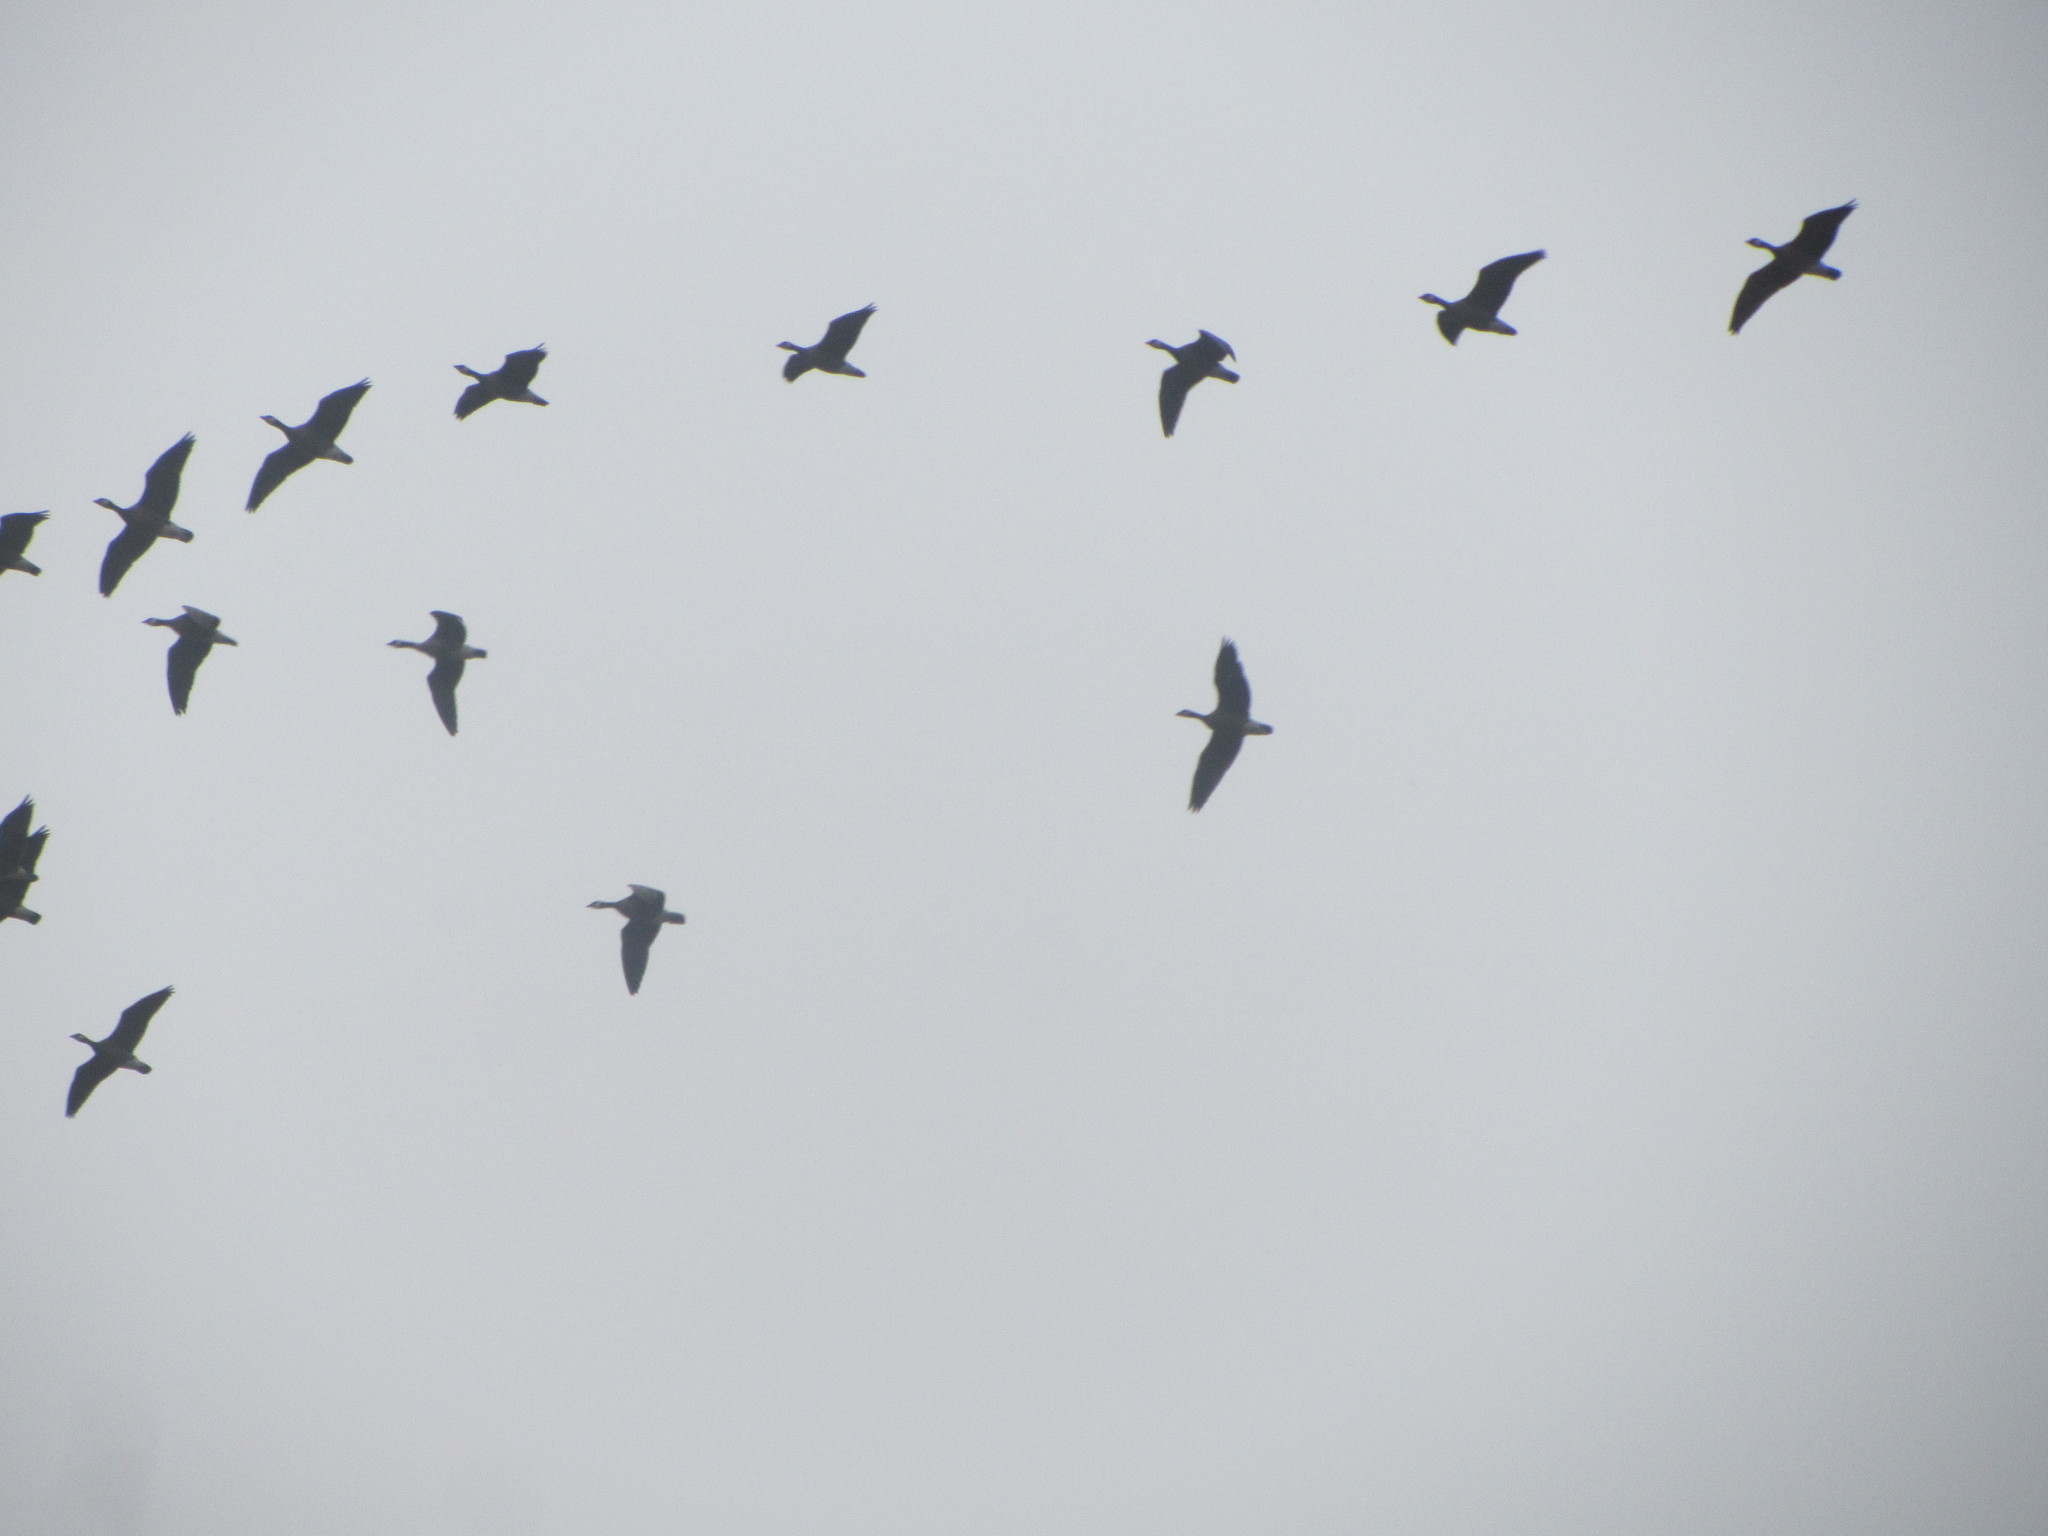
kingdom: Animalia
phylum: Chordata
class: Aves
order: Anseriformes
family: Anatidae
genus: Branta
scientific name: Branta hutchinsii
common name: Cackling goose
